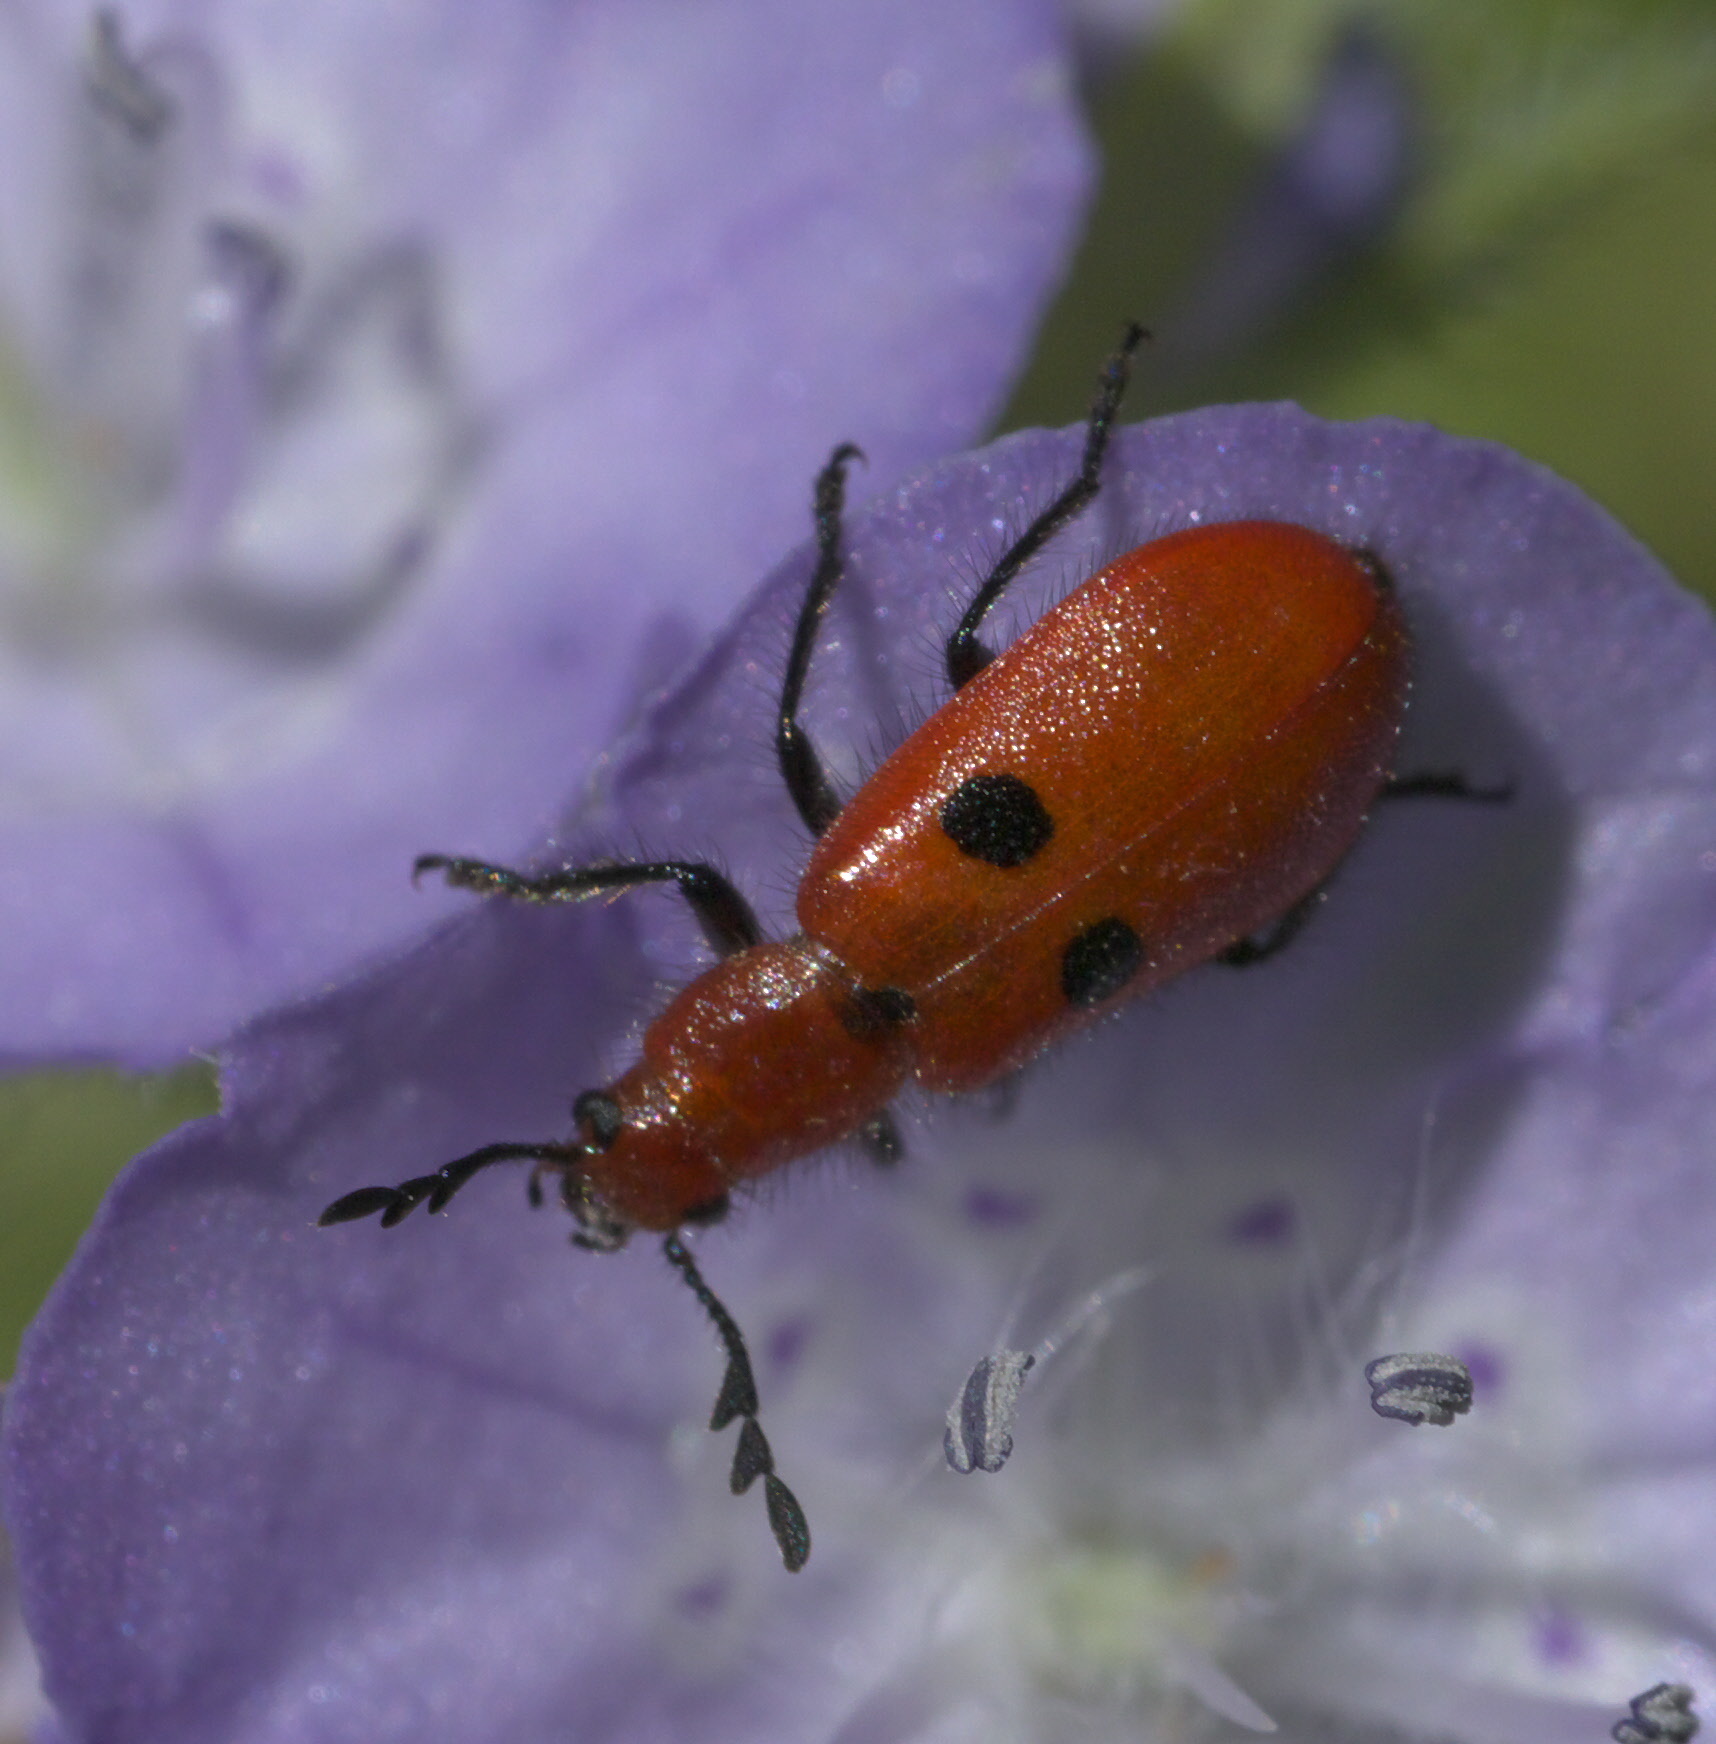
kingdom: Animalia
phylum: Arthropoda
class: Insecta
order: Coleoptera
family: Cleridae
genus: Pelonides
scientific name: Pelonides
